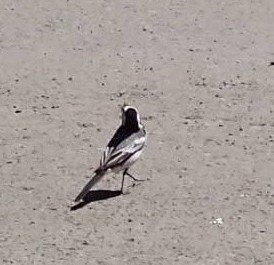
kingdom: Animalia
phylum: Chordata
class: Aves
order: Passeriformes
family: Motacillidae
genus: Motacilla
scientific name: Motacilla alba
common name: White wagtail
